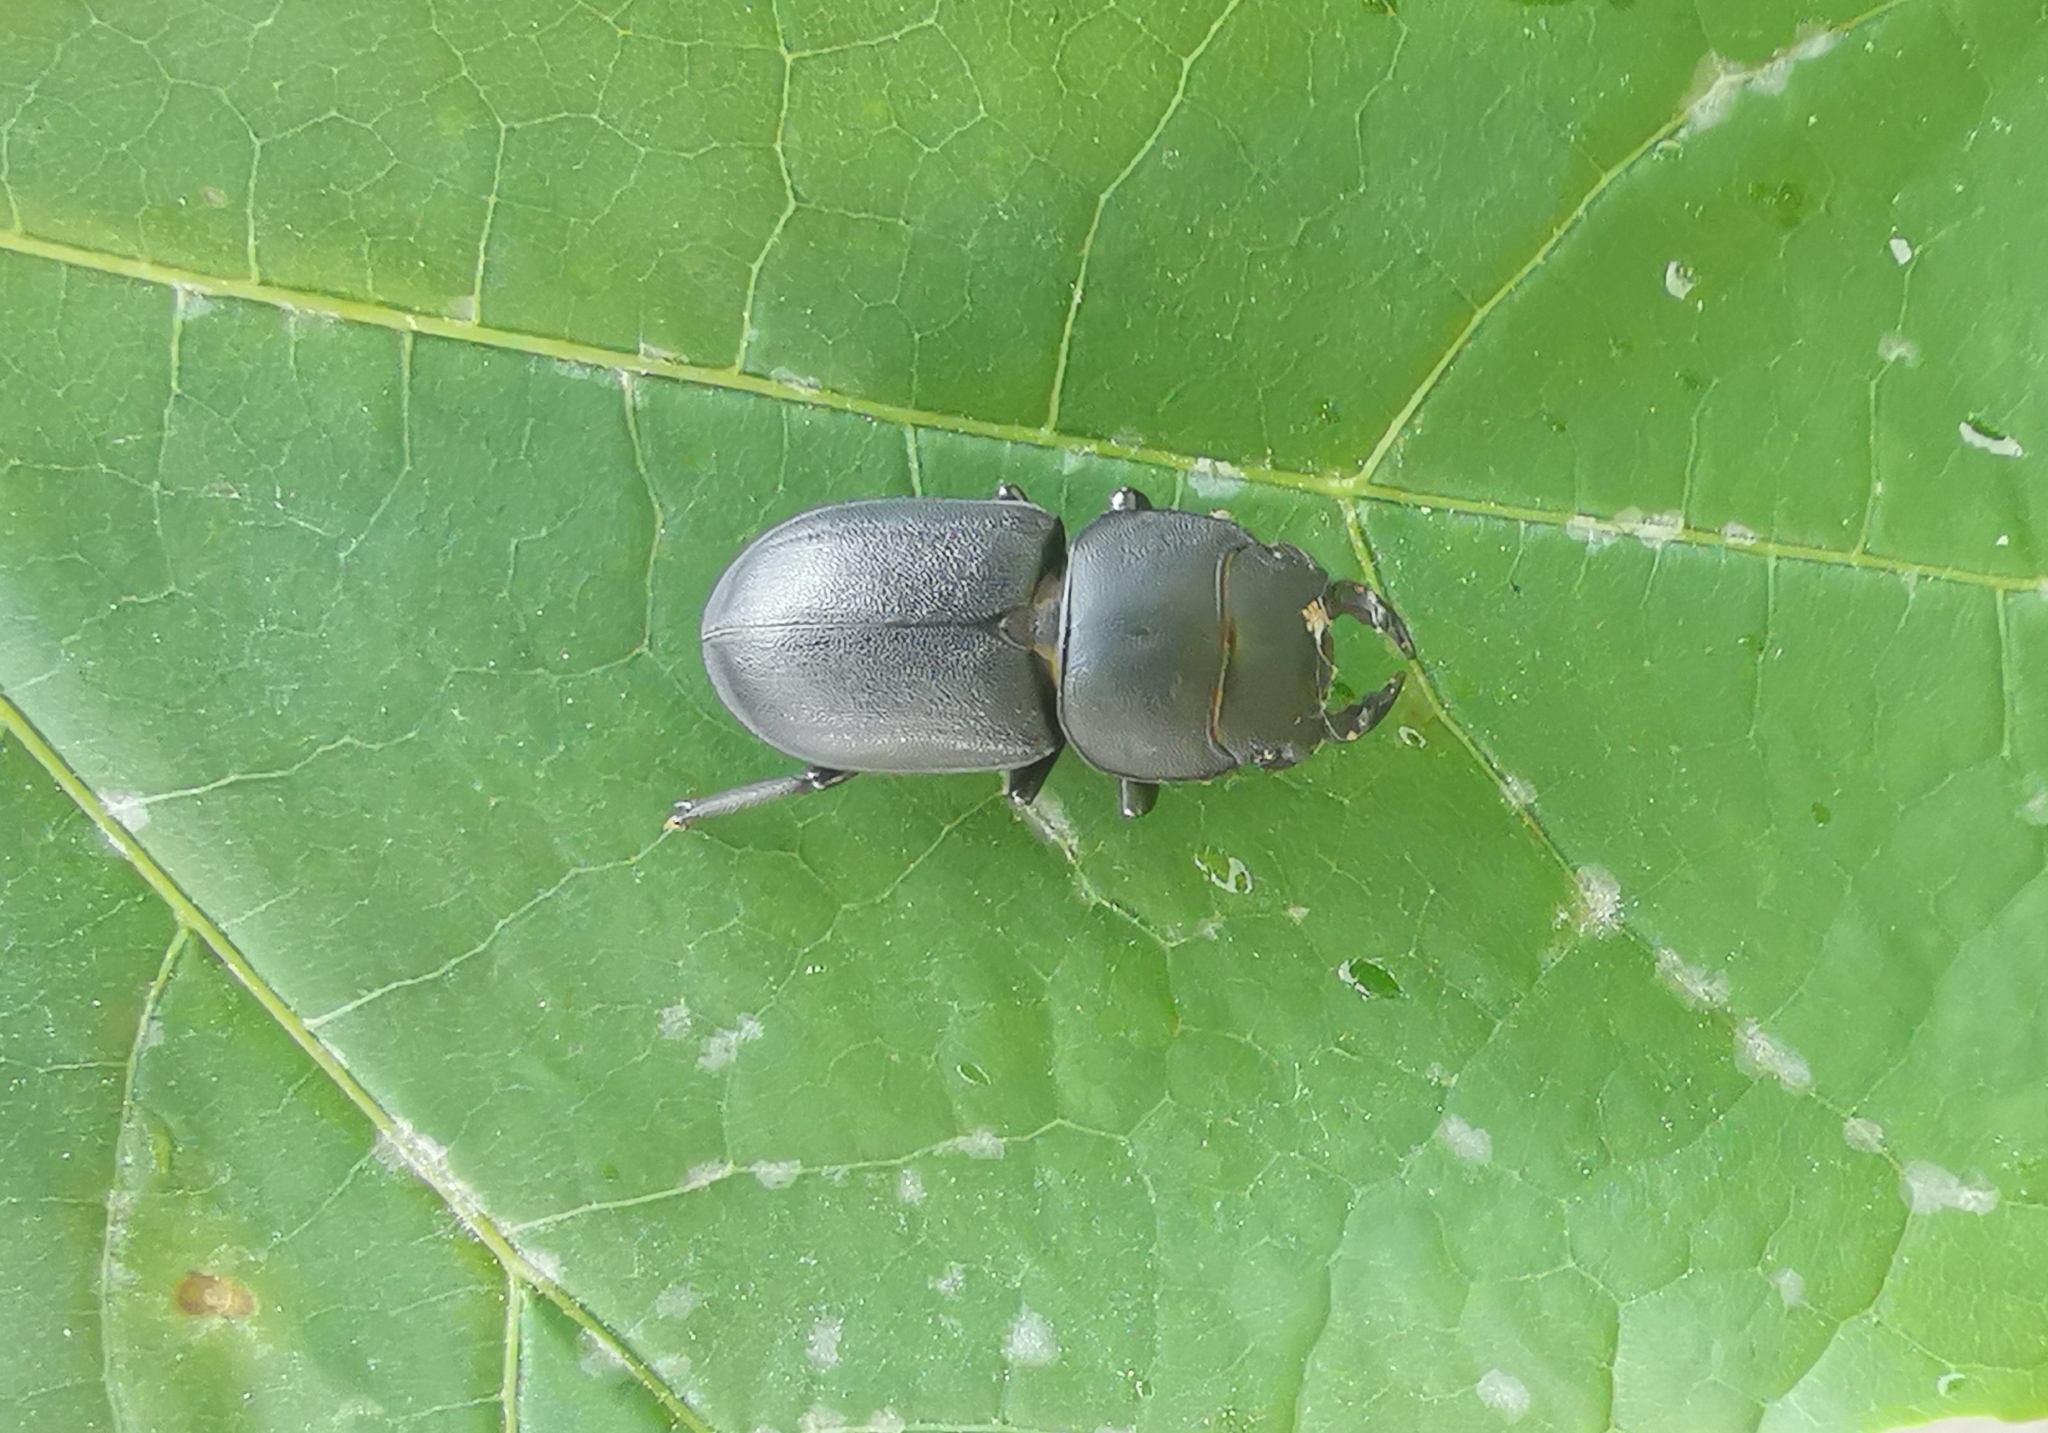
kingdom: Animalia
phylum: Arthropoda
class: Insecta
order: Coleoptera
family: Lucanidae
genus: Dorcus
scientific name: Dorcus parallelipipedus
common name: Lesser stag beetle
